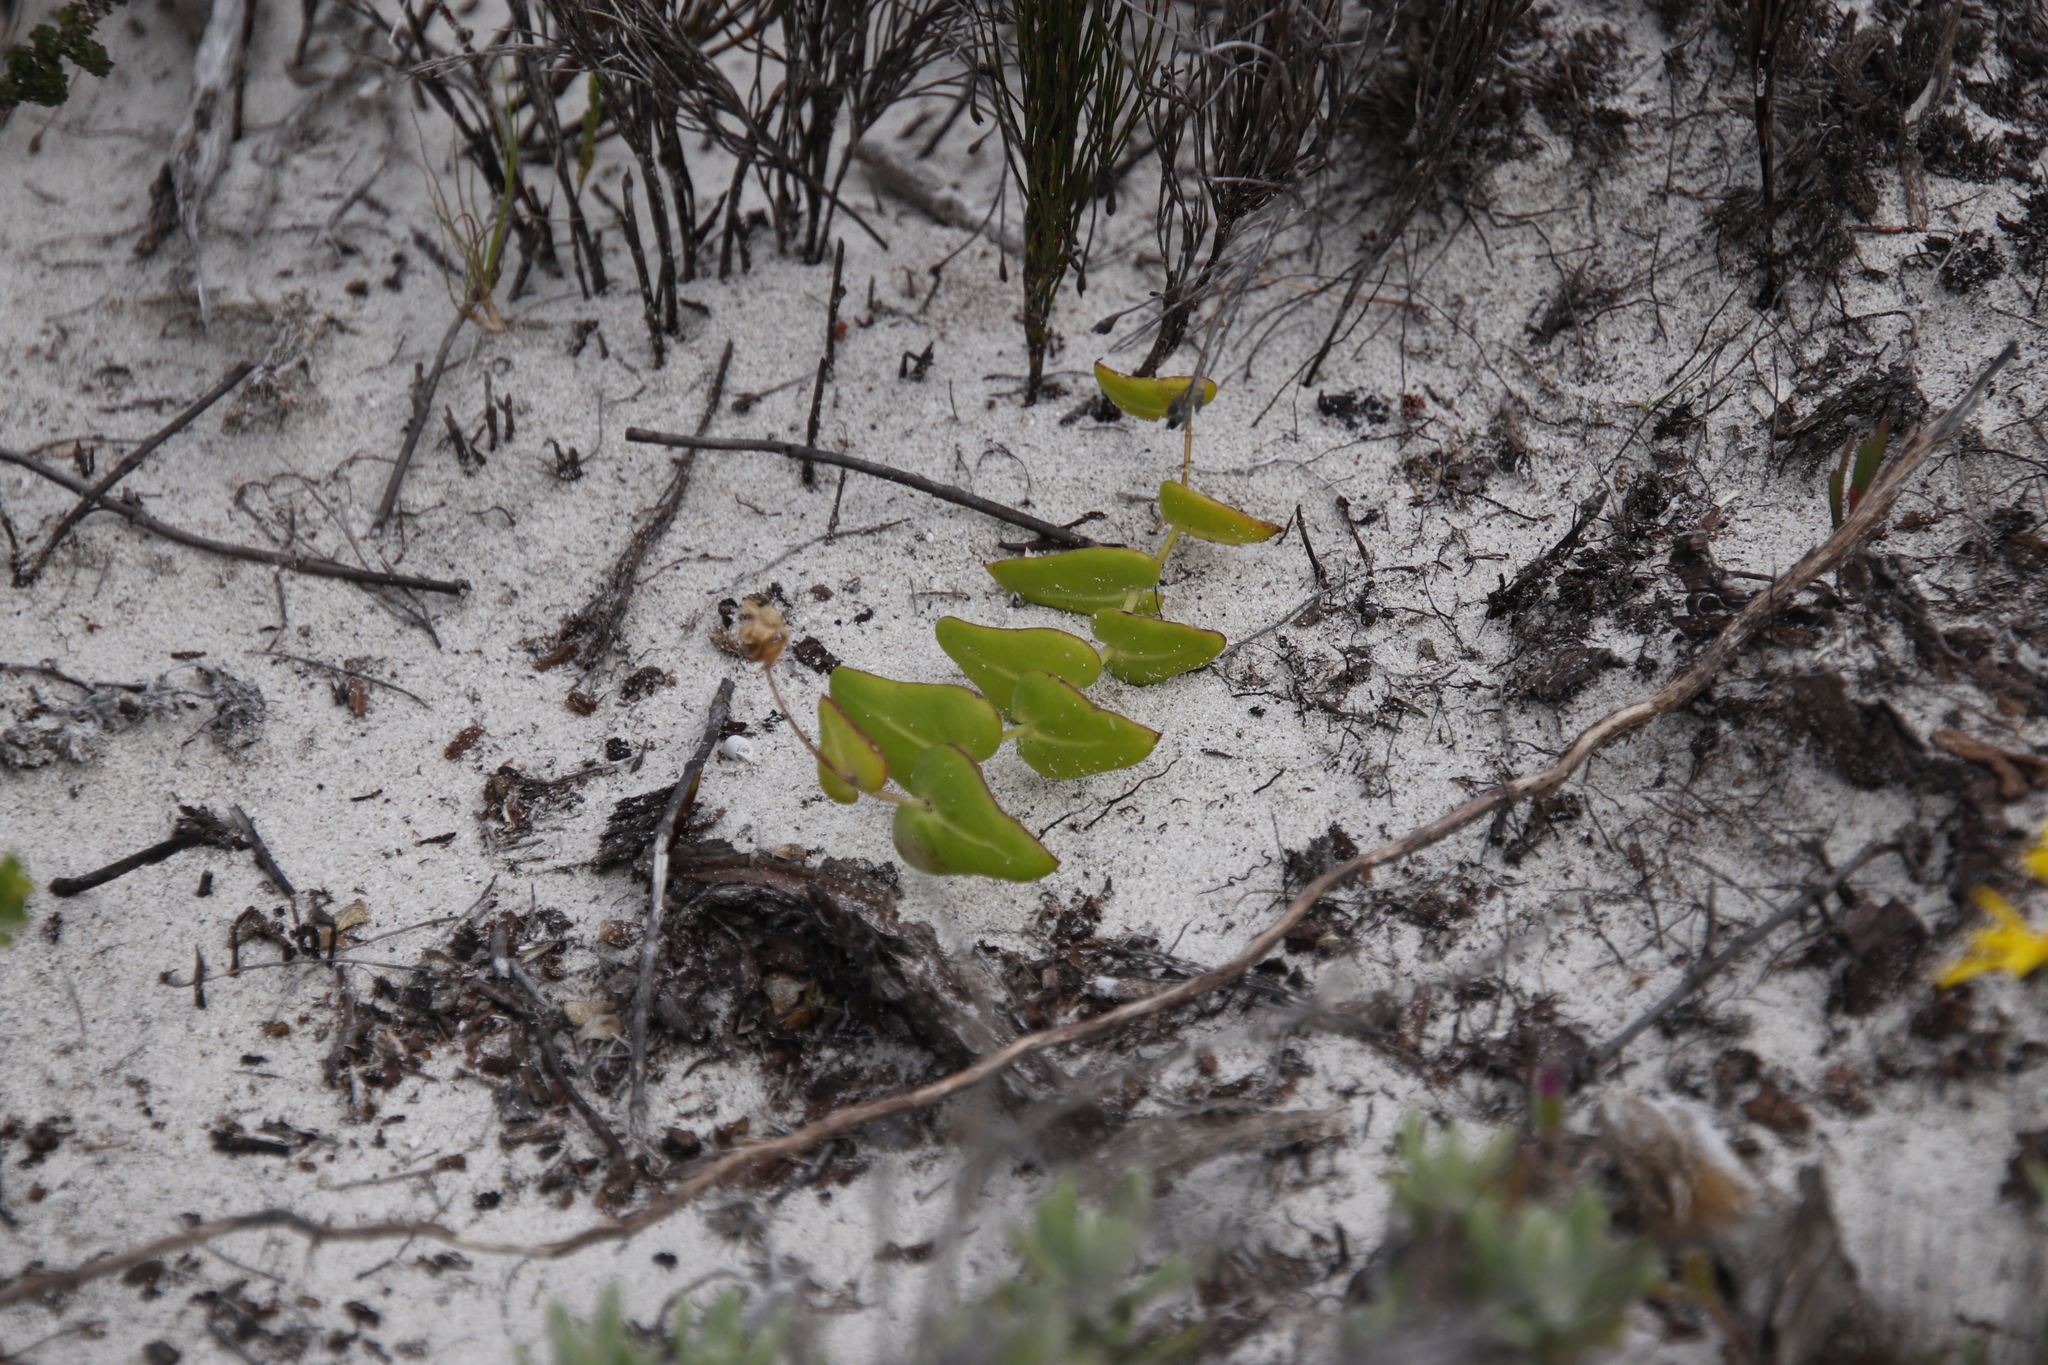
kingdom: Plantae
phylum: Tracheophyta
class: Magnoliopsida
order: Asterales
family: Asteraceae
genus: Othonna
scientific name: Othonna undulosa
